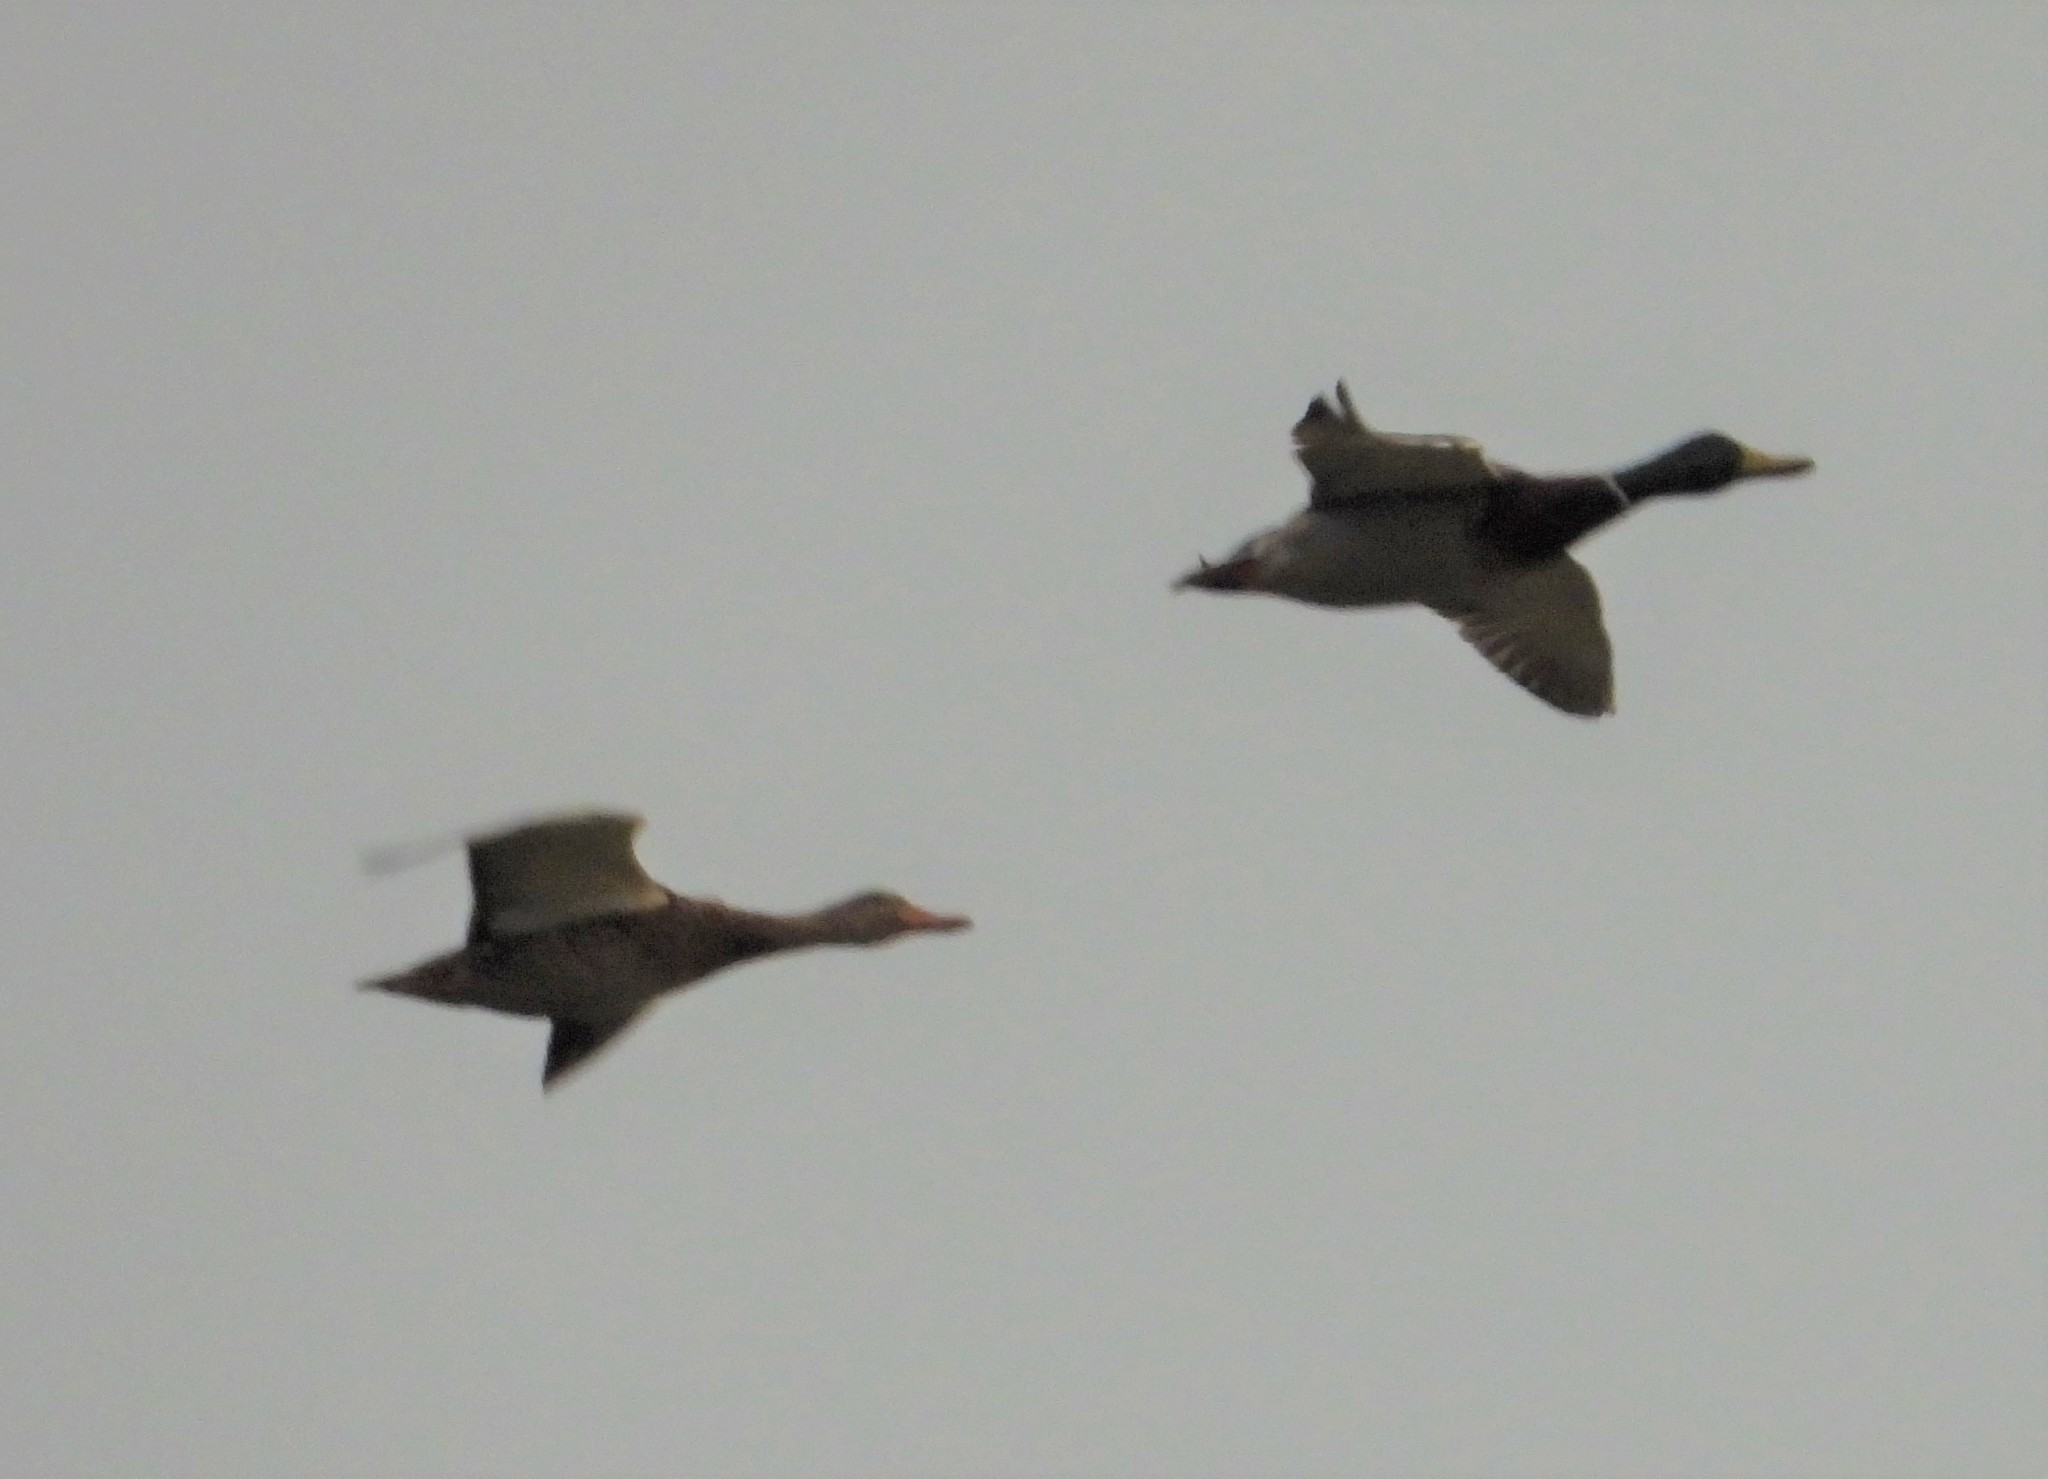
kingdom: Animalia
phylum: Chordata
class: Aves
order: Anseriformes
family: Anatidae
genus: Anas
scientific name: Anas platyrhynchos
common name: Mallard
